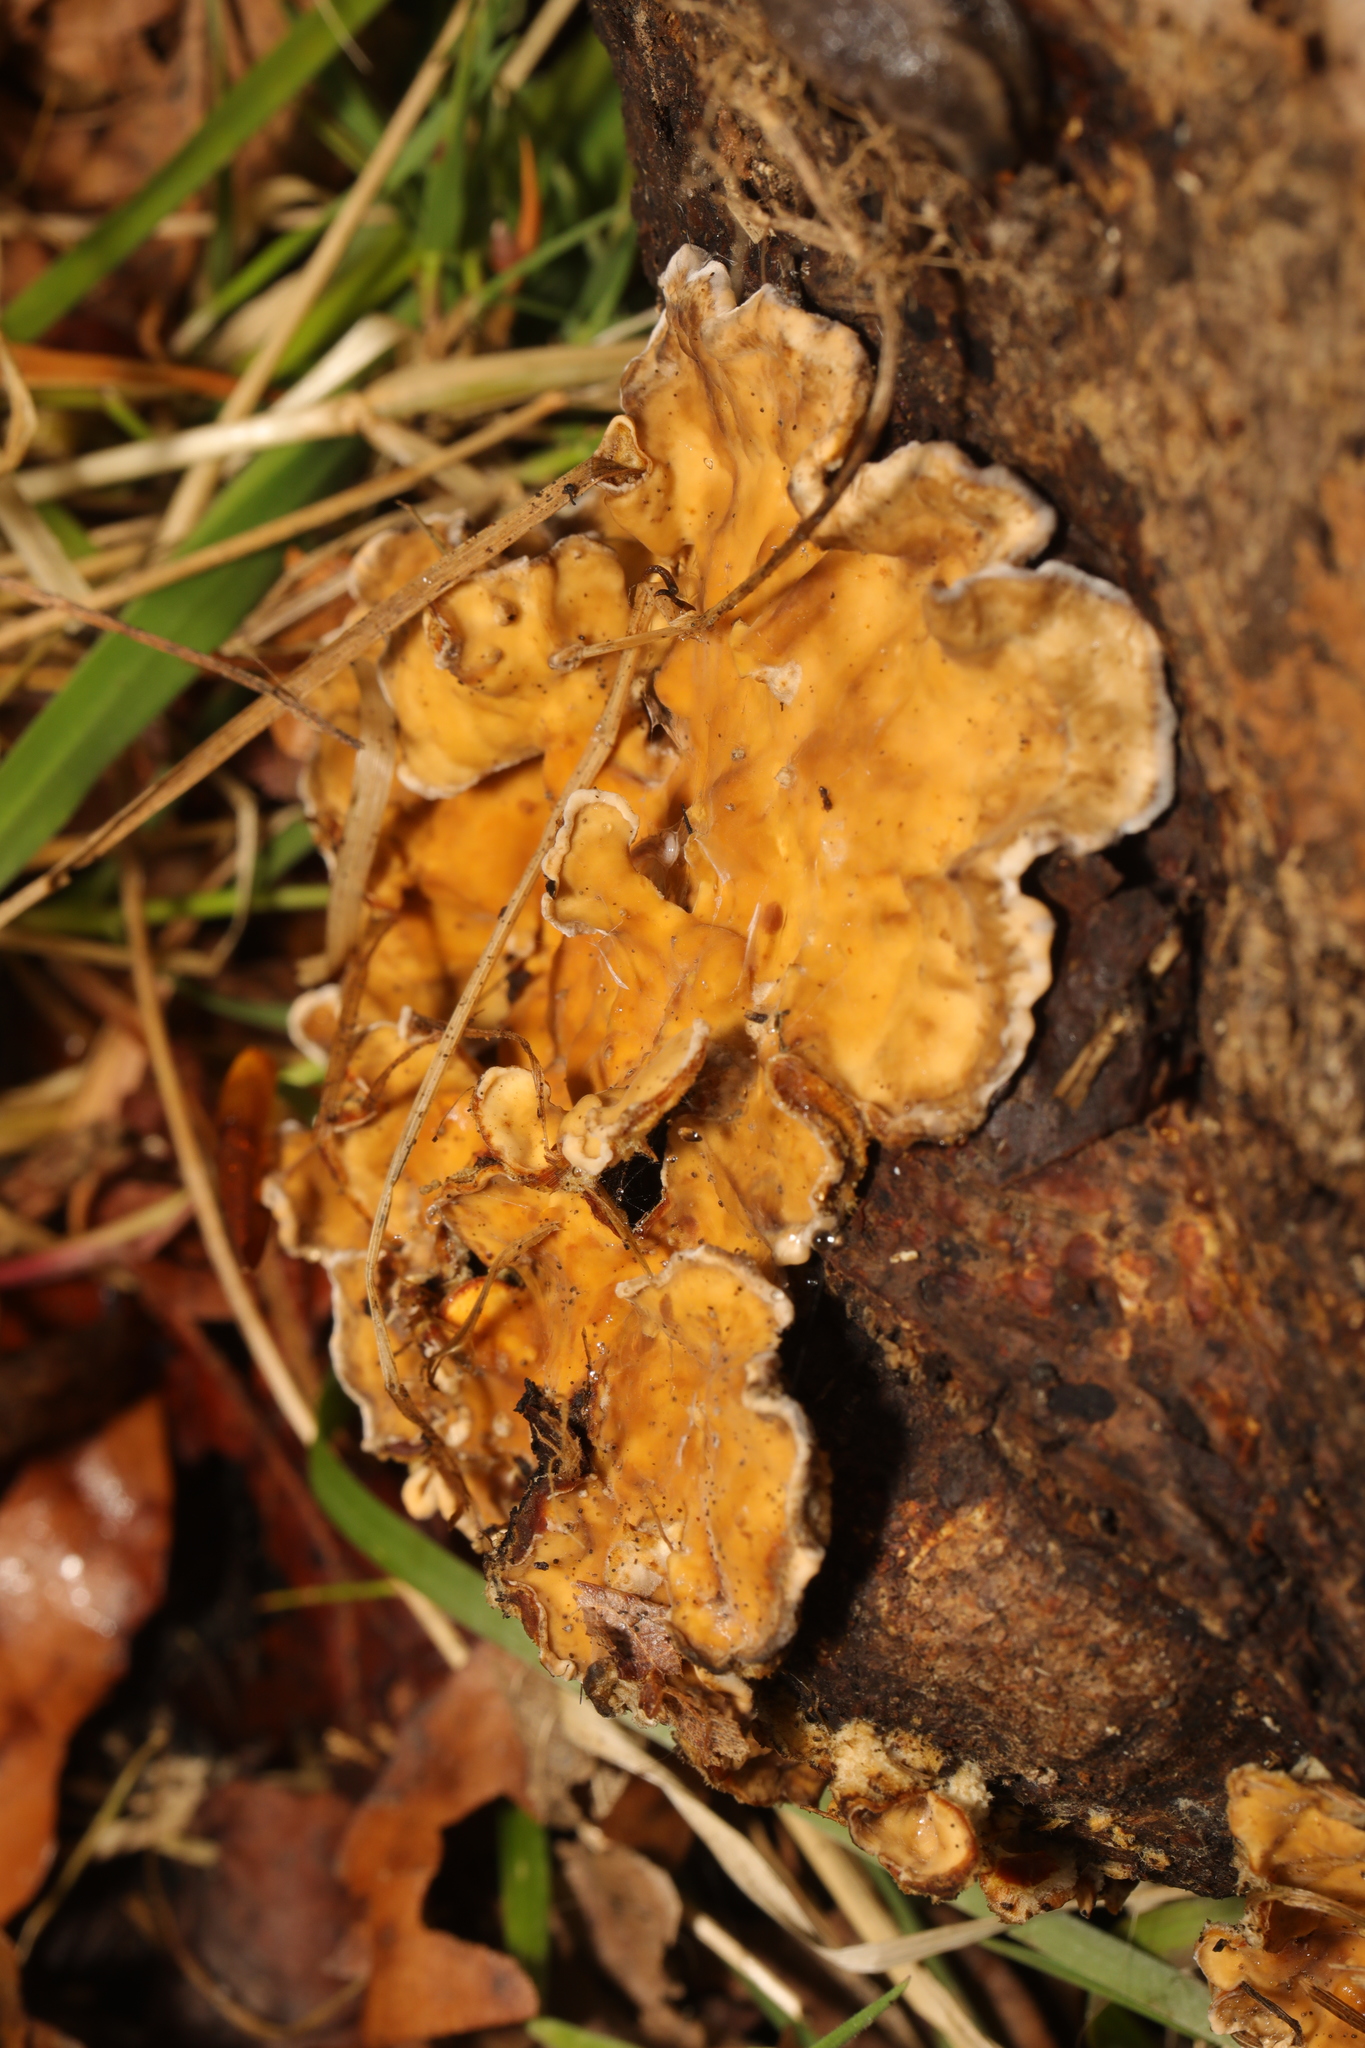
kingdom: Fungi
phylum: Basidiomycota
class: Agaricomycetes
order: Russulales
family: Stereaceae
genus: Stereum
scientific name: Stereum hirsutum
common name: Hairy curtain crust
